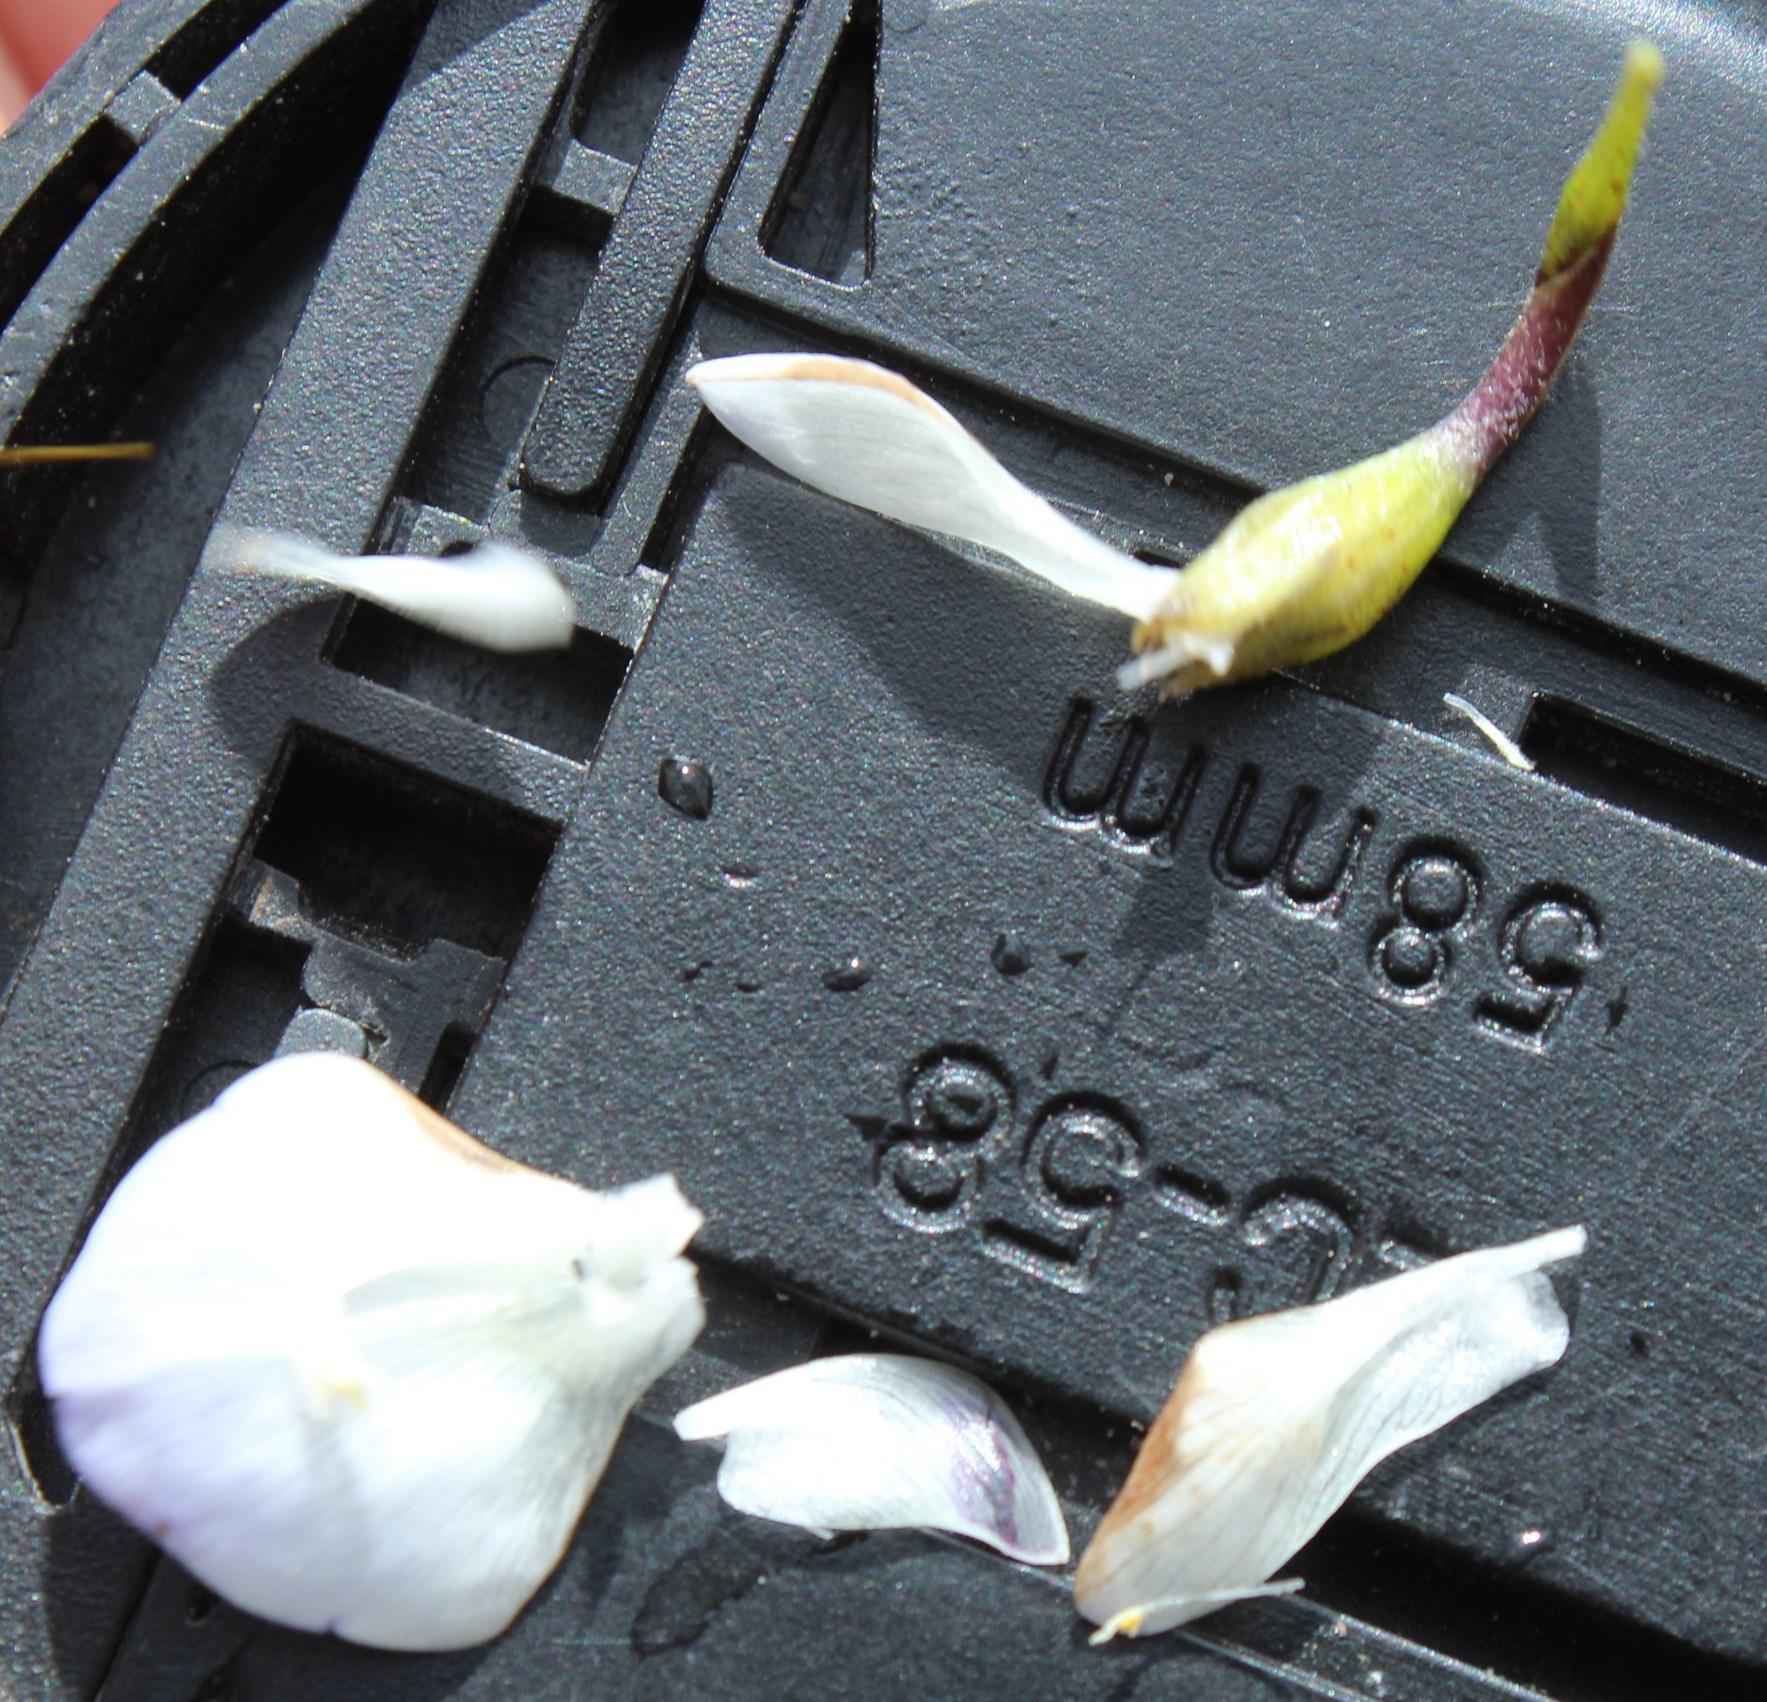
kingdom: Plantae
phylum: Tracheophyta
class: Magnoliopsida
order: Fabales
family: Fabaceae
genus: Psoralea
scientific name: Psoralea aphylla
